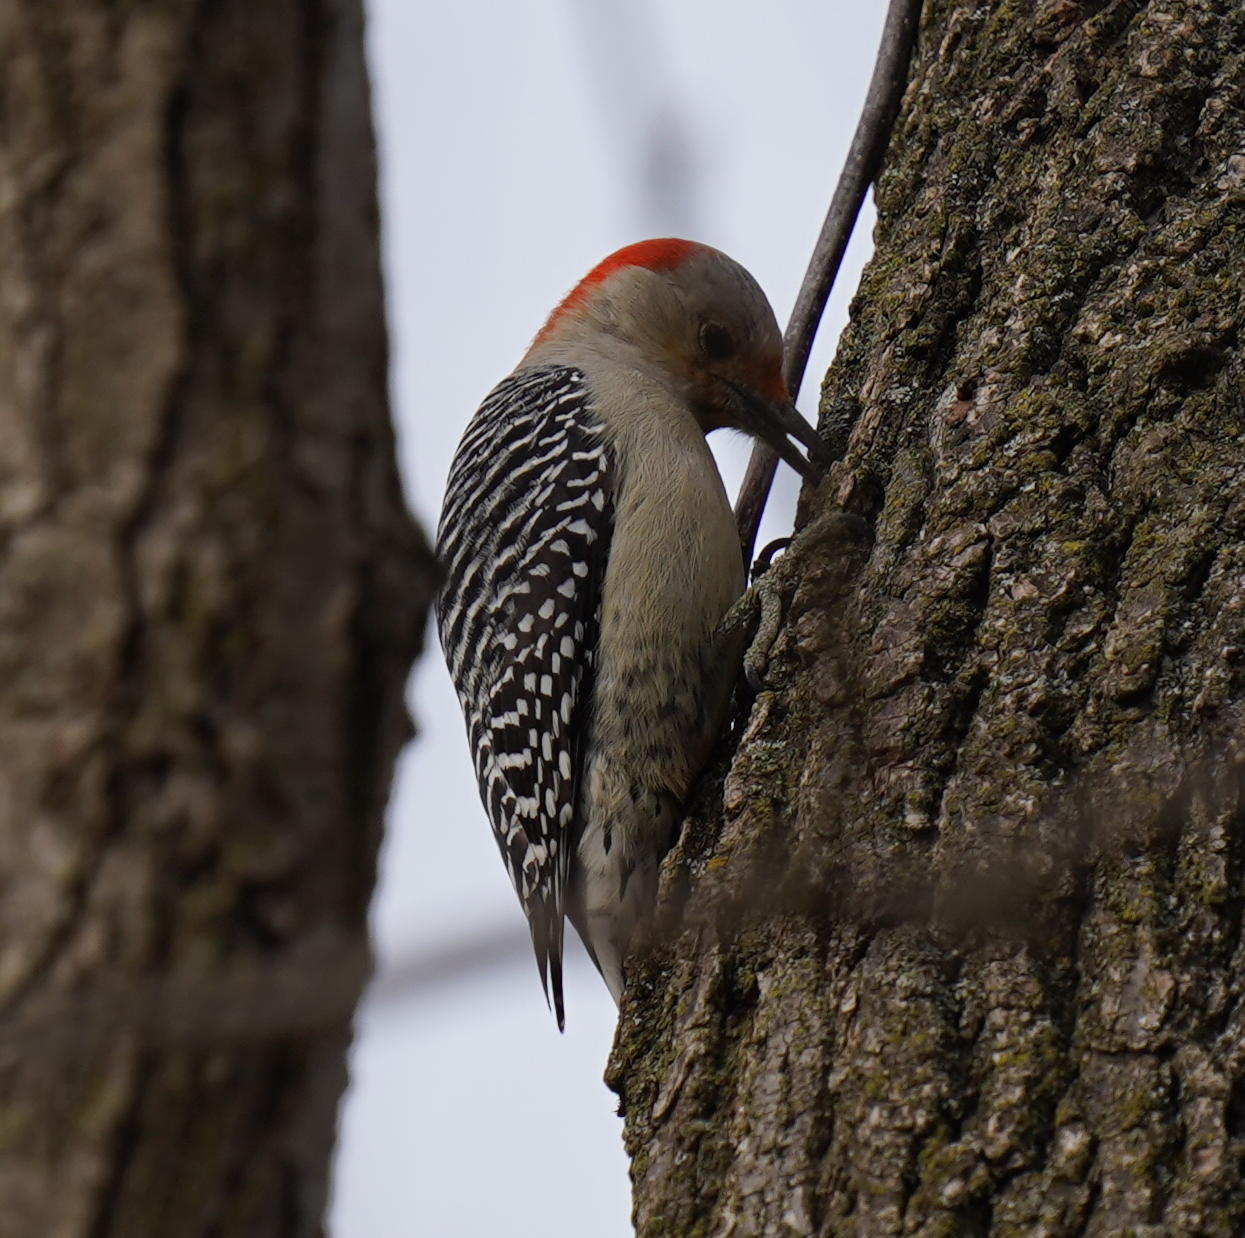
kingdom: Animalia
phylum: Chordata
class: Aves
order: Piciformes
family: Picidae
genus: Melanerpes
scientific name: Melanerpes carolinus
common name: Red-bellied woodpecker
